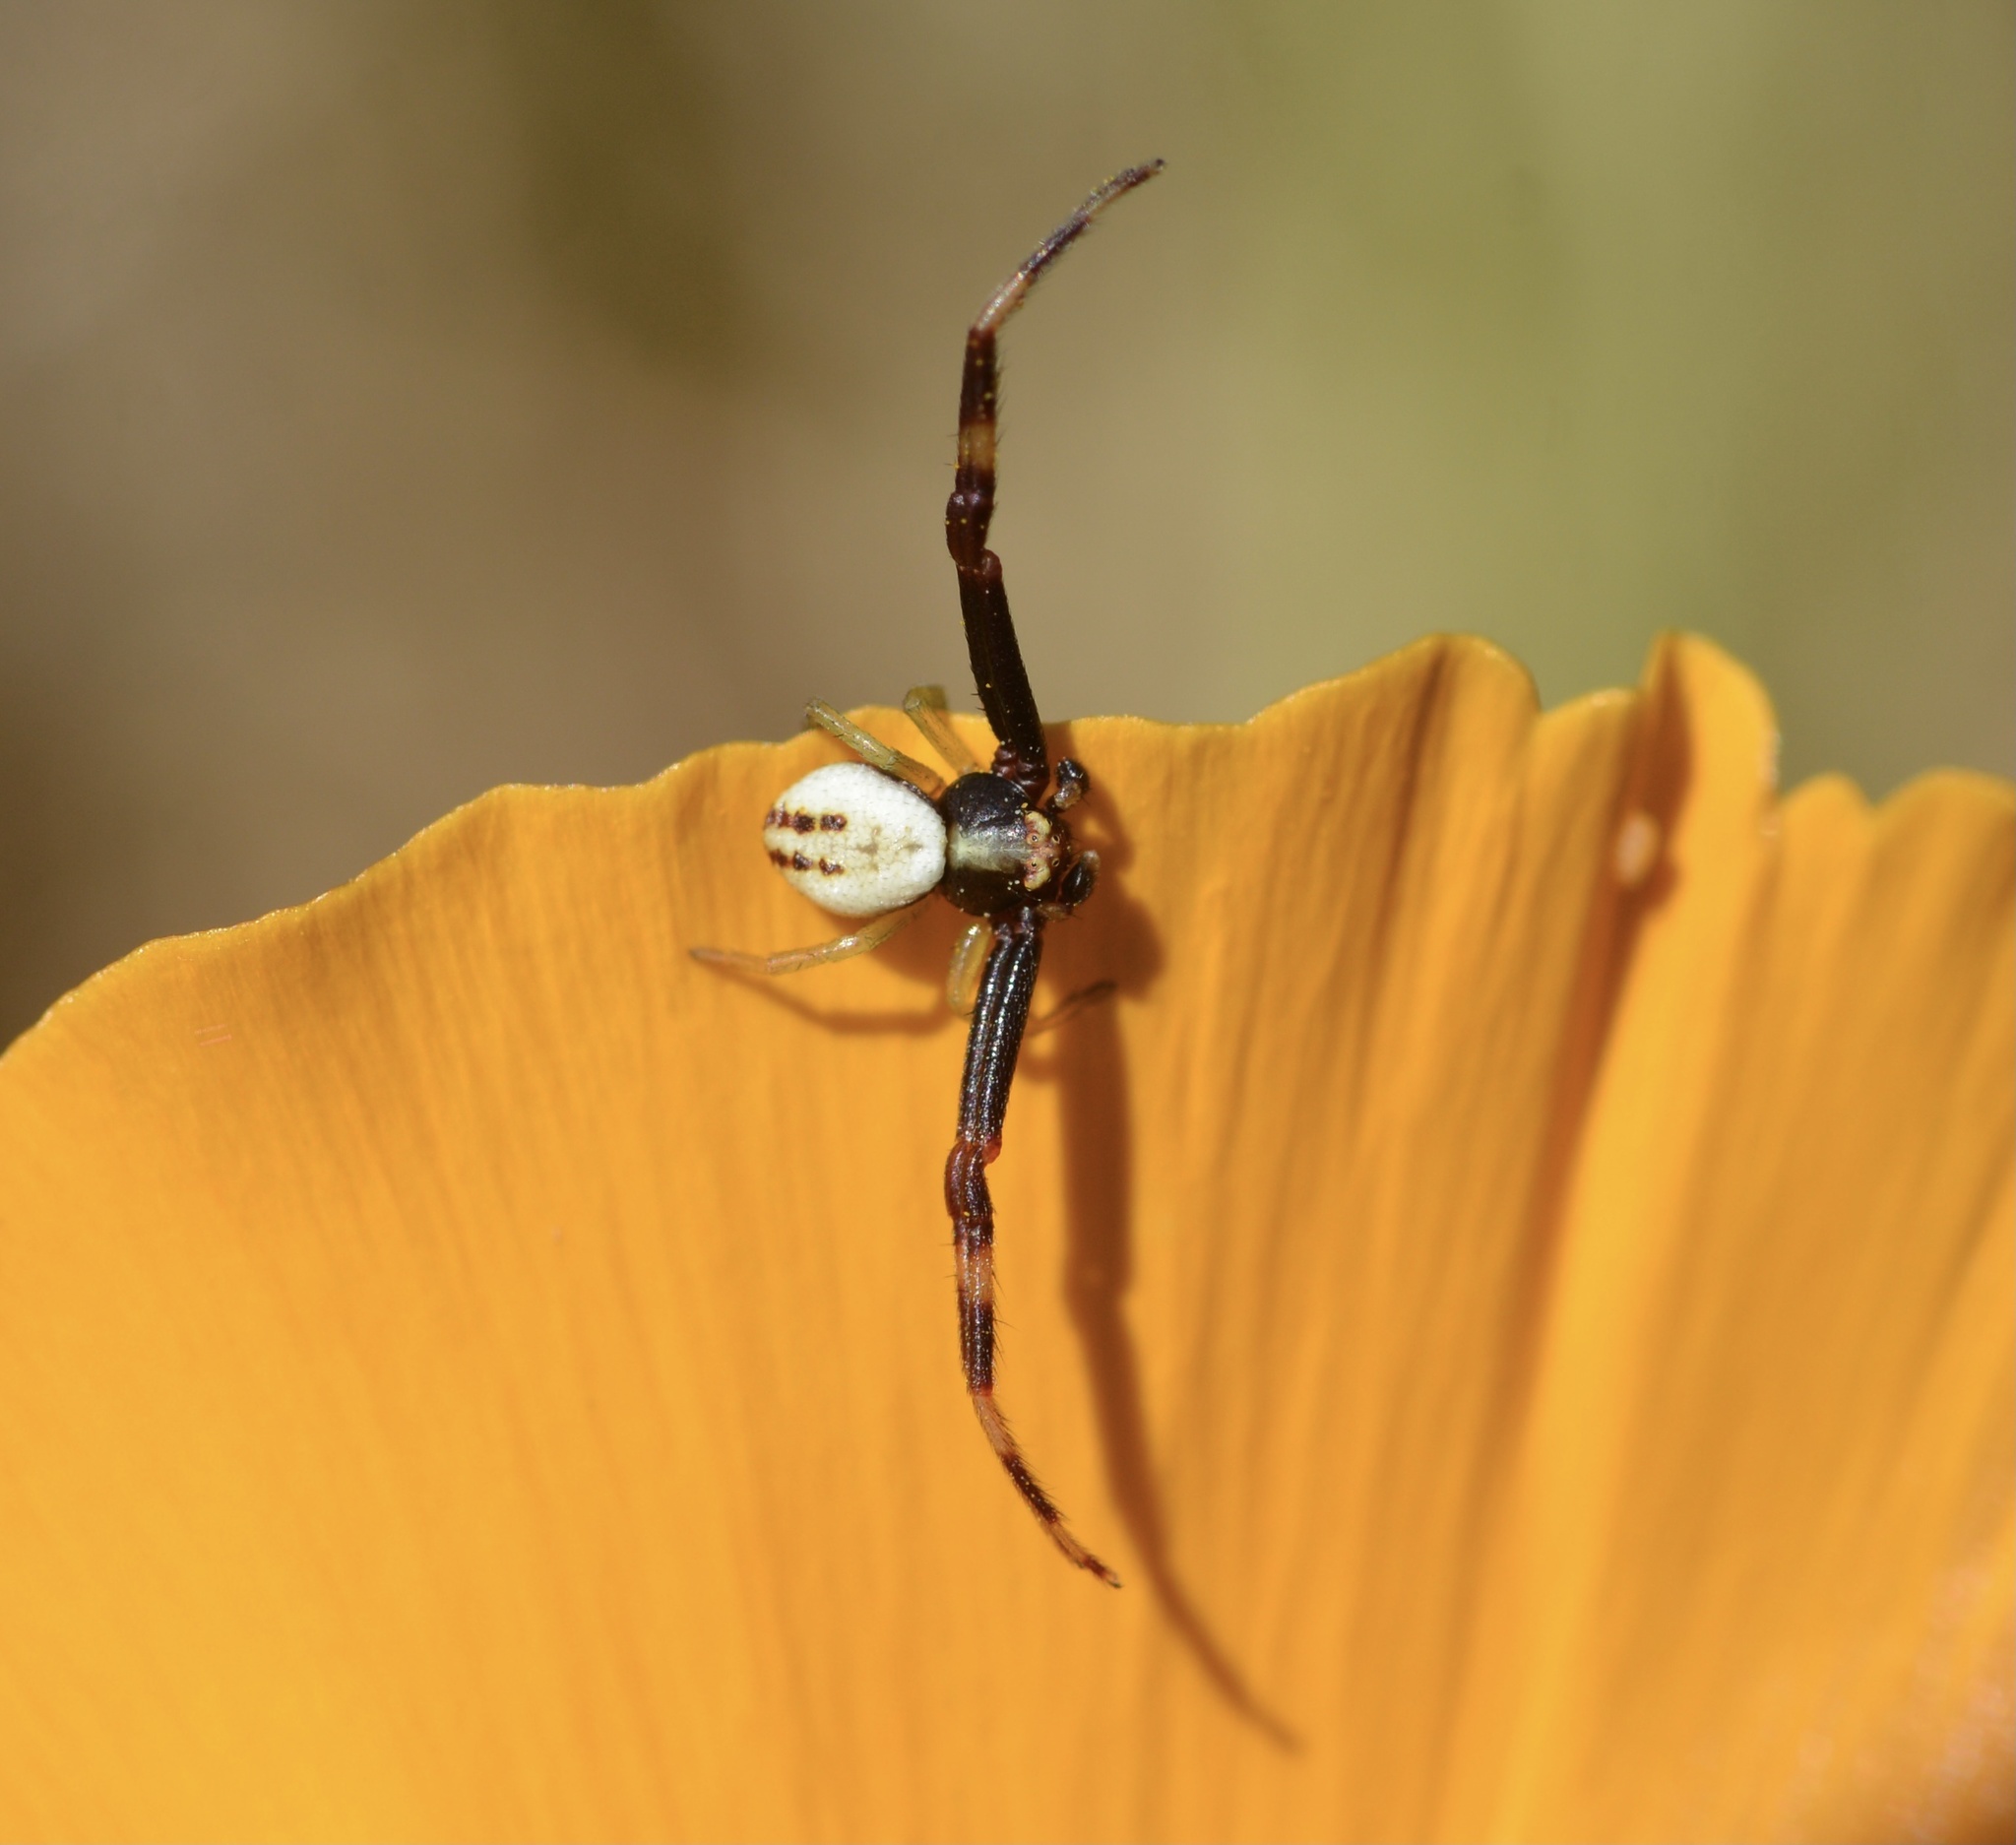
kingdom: Animalia
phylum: Arthropoda
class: Arachnida
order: Araneae
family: Thomisidae
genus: Misumena
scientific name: Misumena vatia
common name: Goldenrod crab spider
